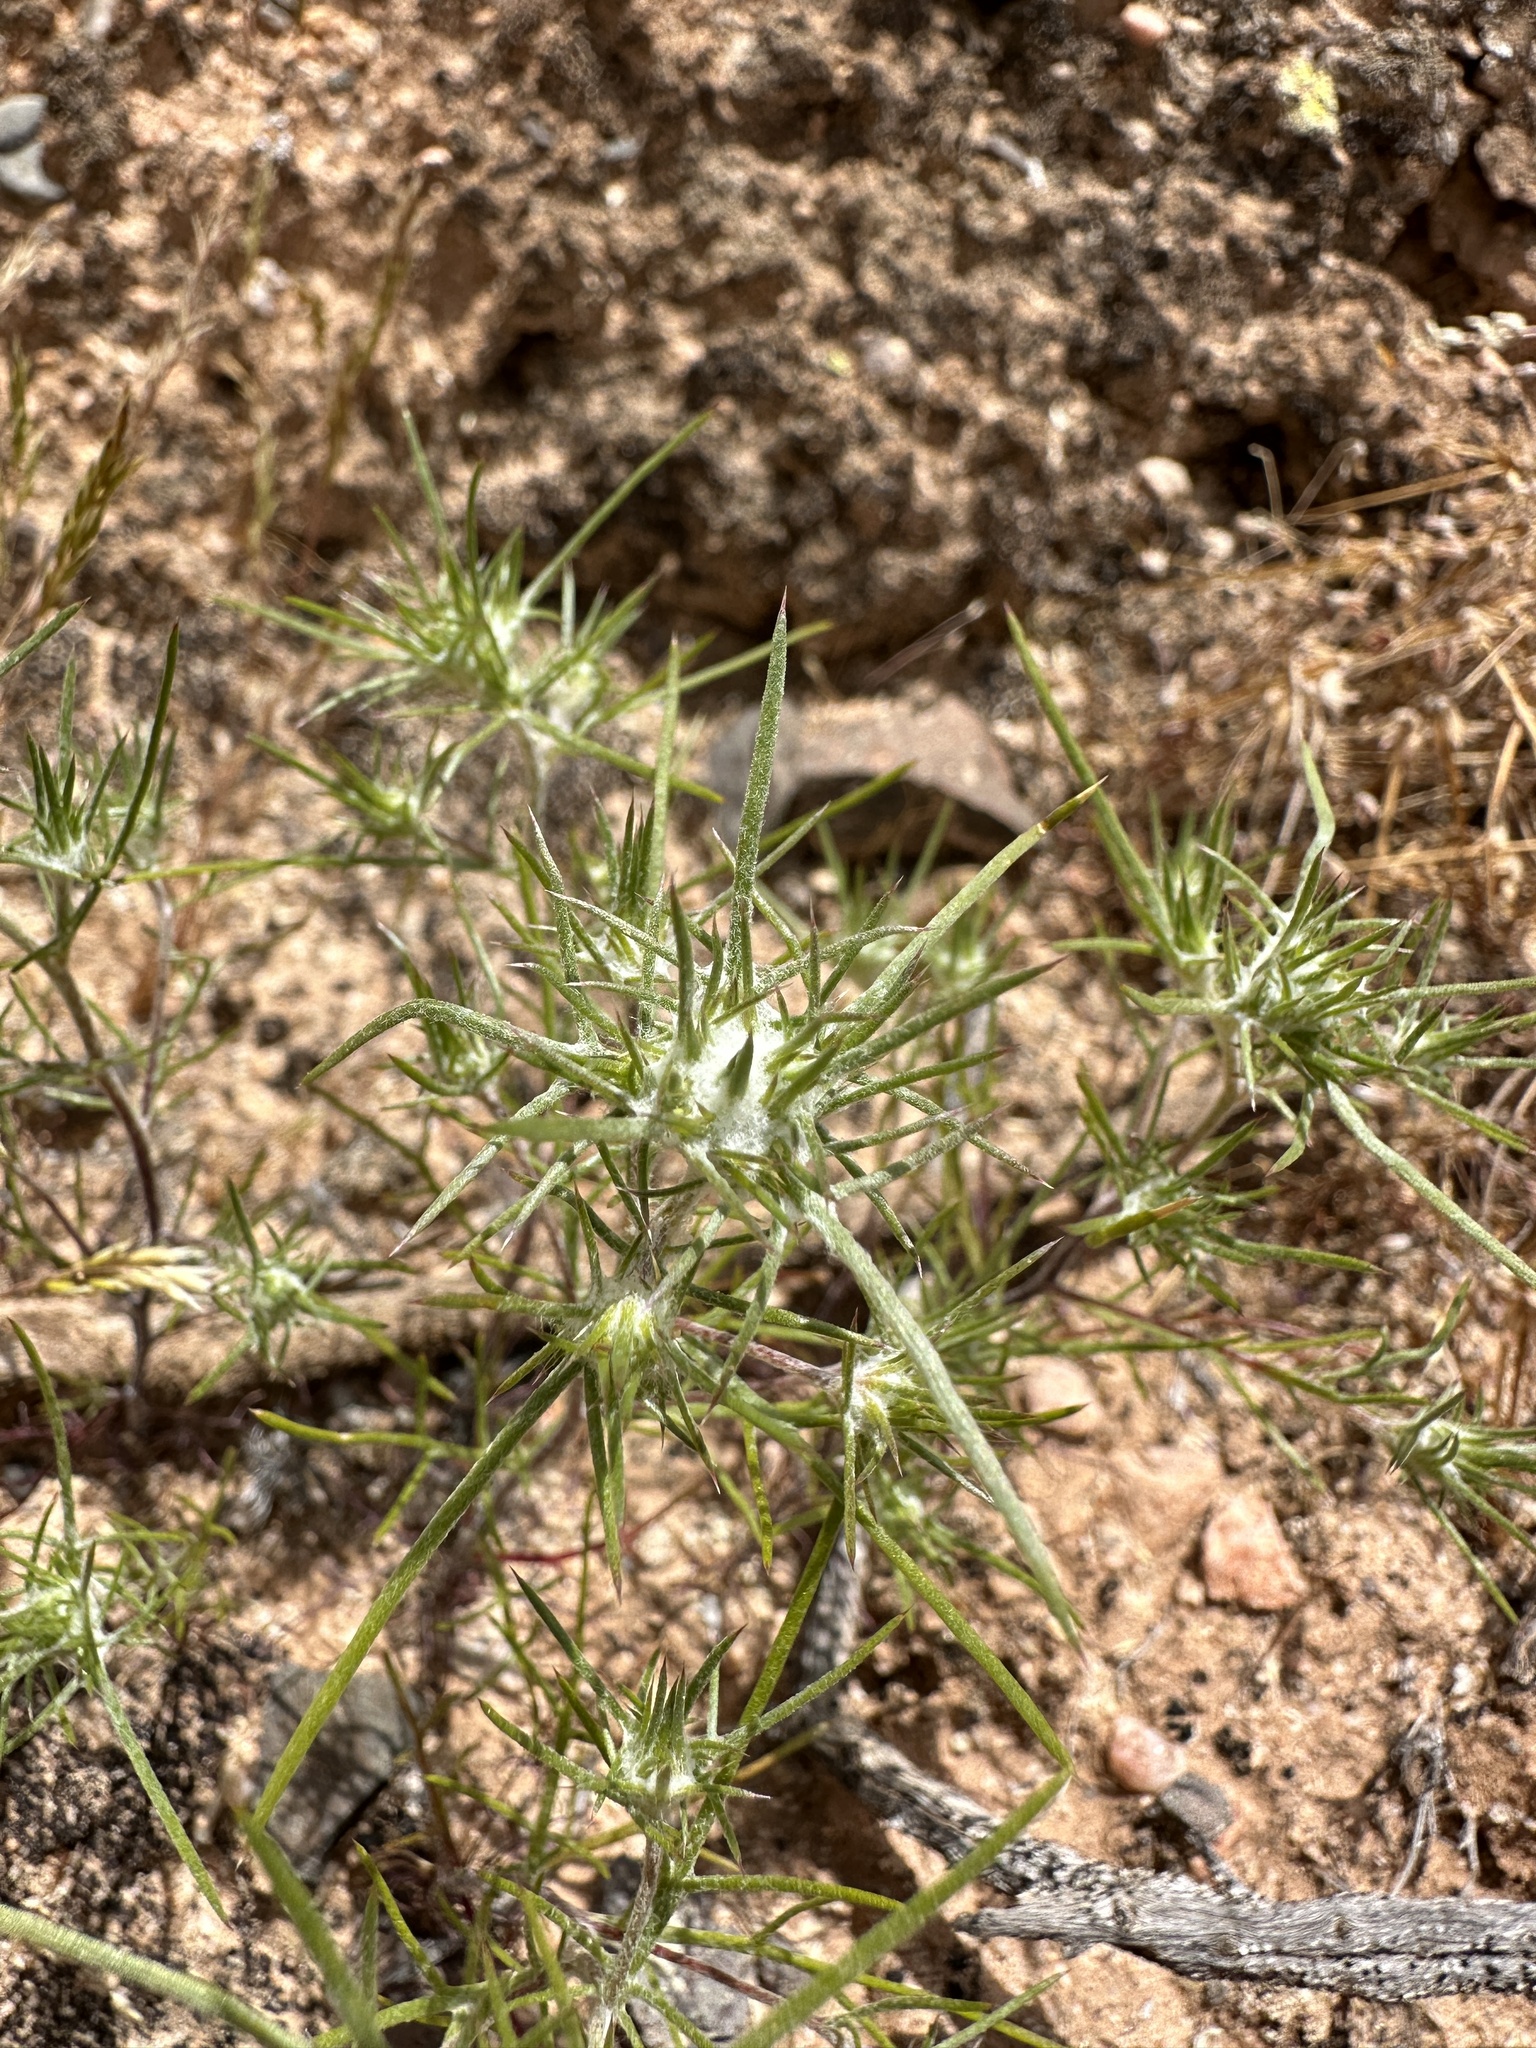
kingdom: Plantae
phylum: Tracheophyta
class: Magnoliopsida
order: Ericales
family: Polemoniaceae
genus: Eriastrum
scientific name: Eriastrum pluriflorum
